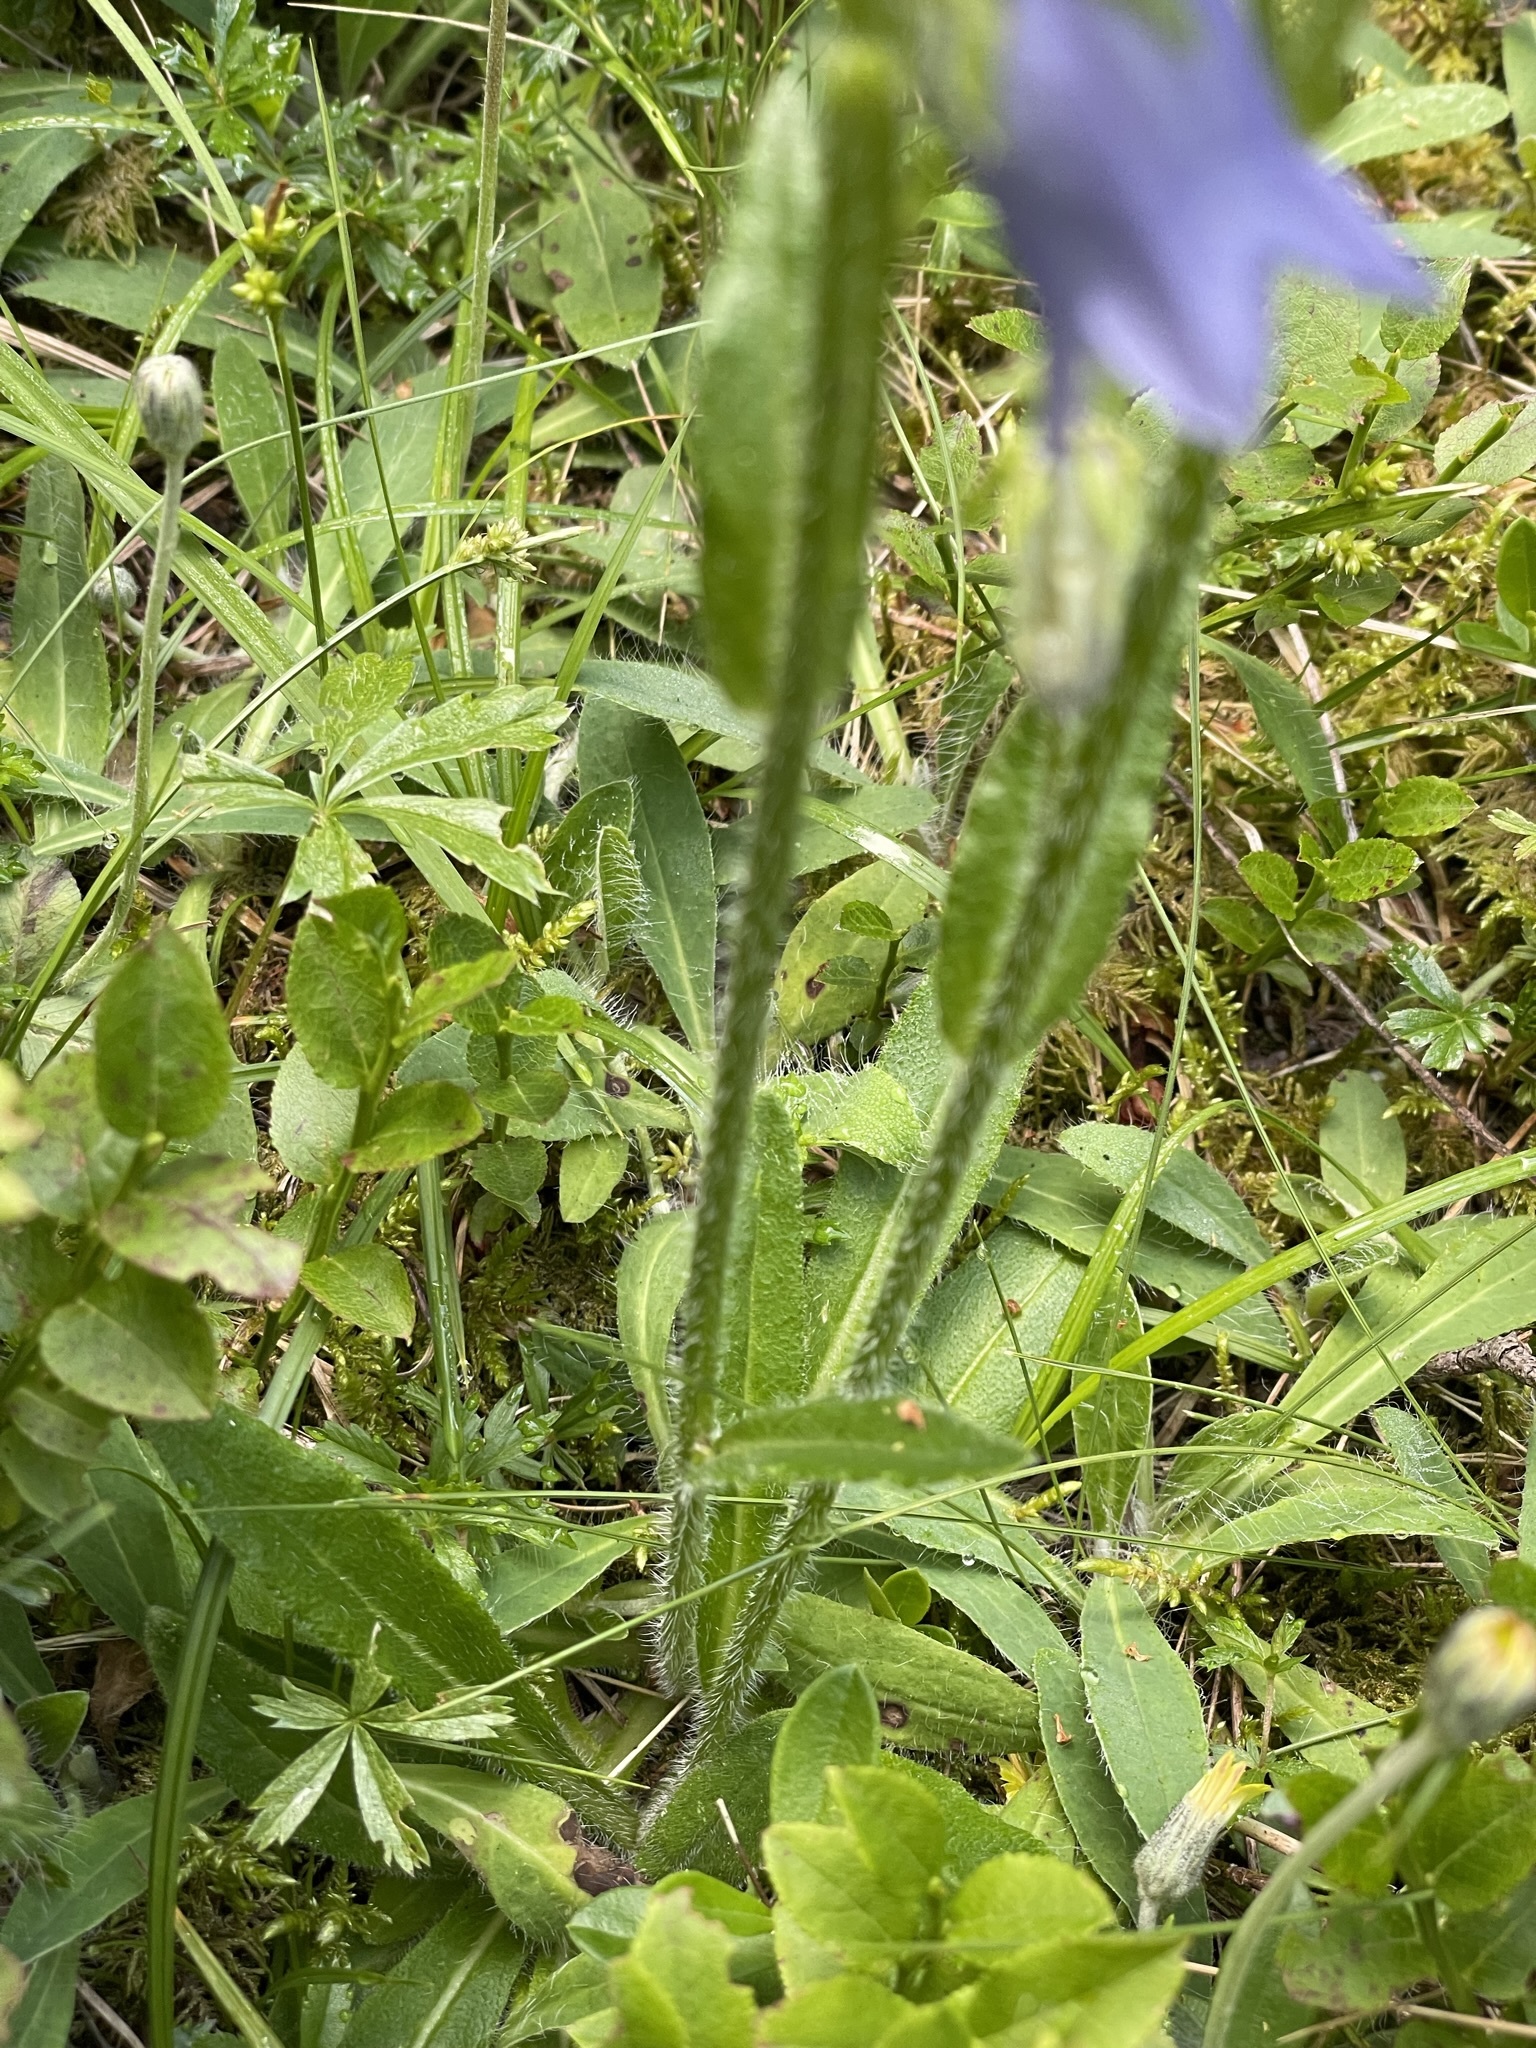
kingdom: Plantae
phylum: Tracheophyta
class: Magnoliopsida
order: Asterales
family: Campanulaceae
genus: Campanula
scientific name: Campanula barbata
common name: Bearded bellflower
